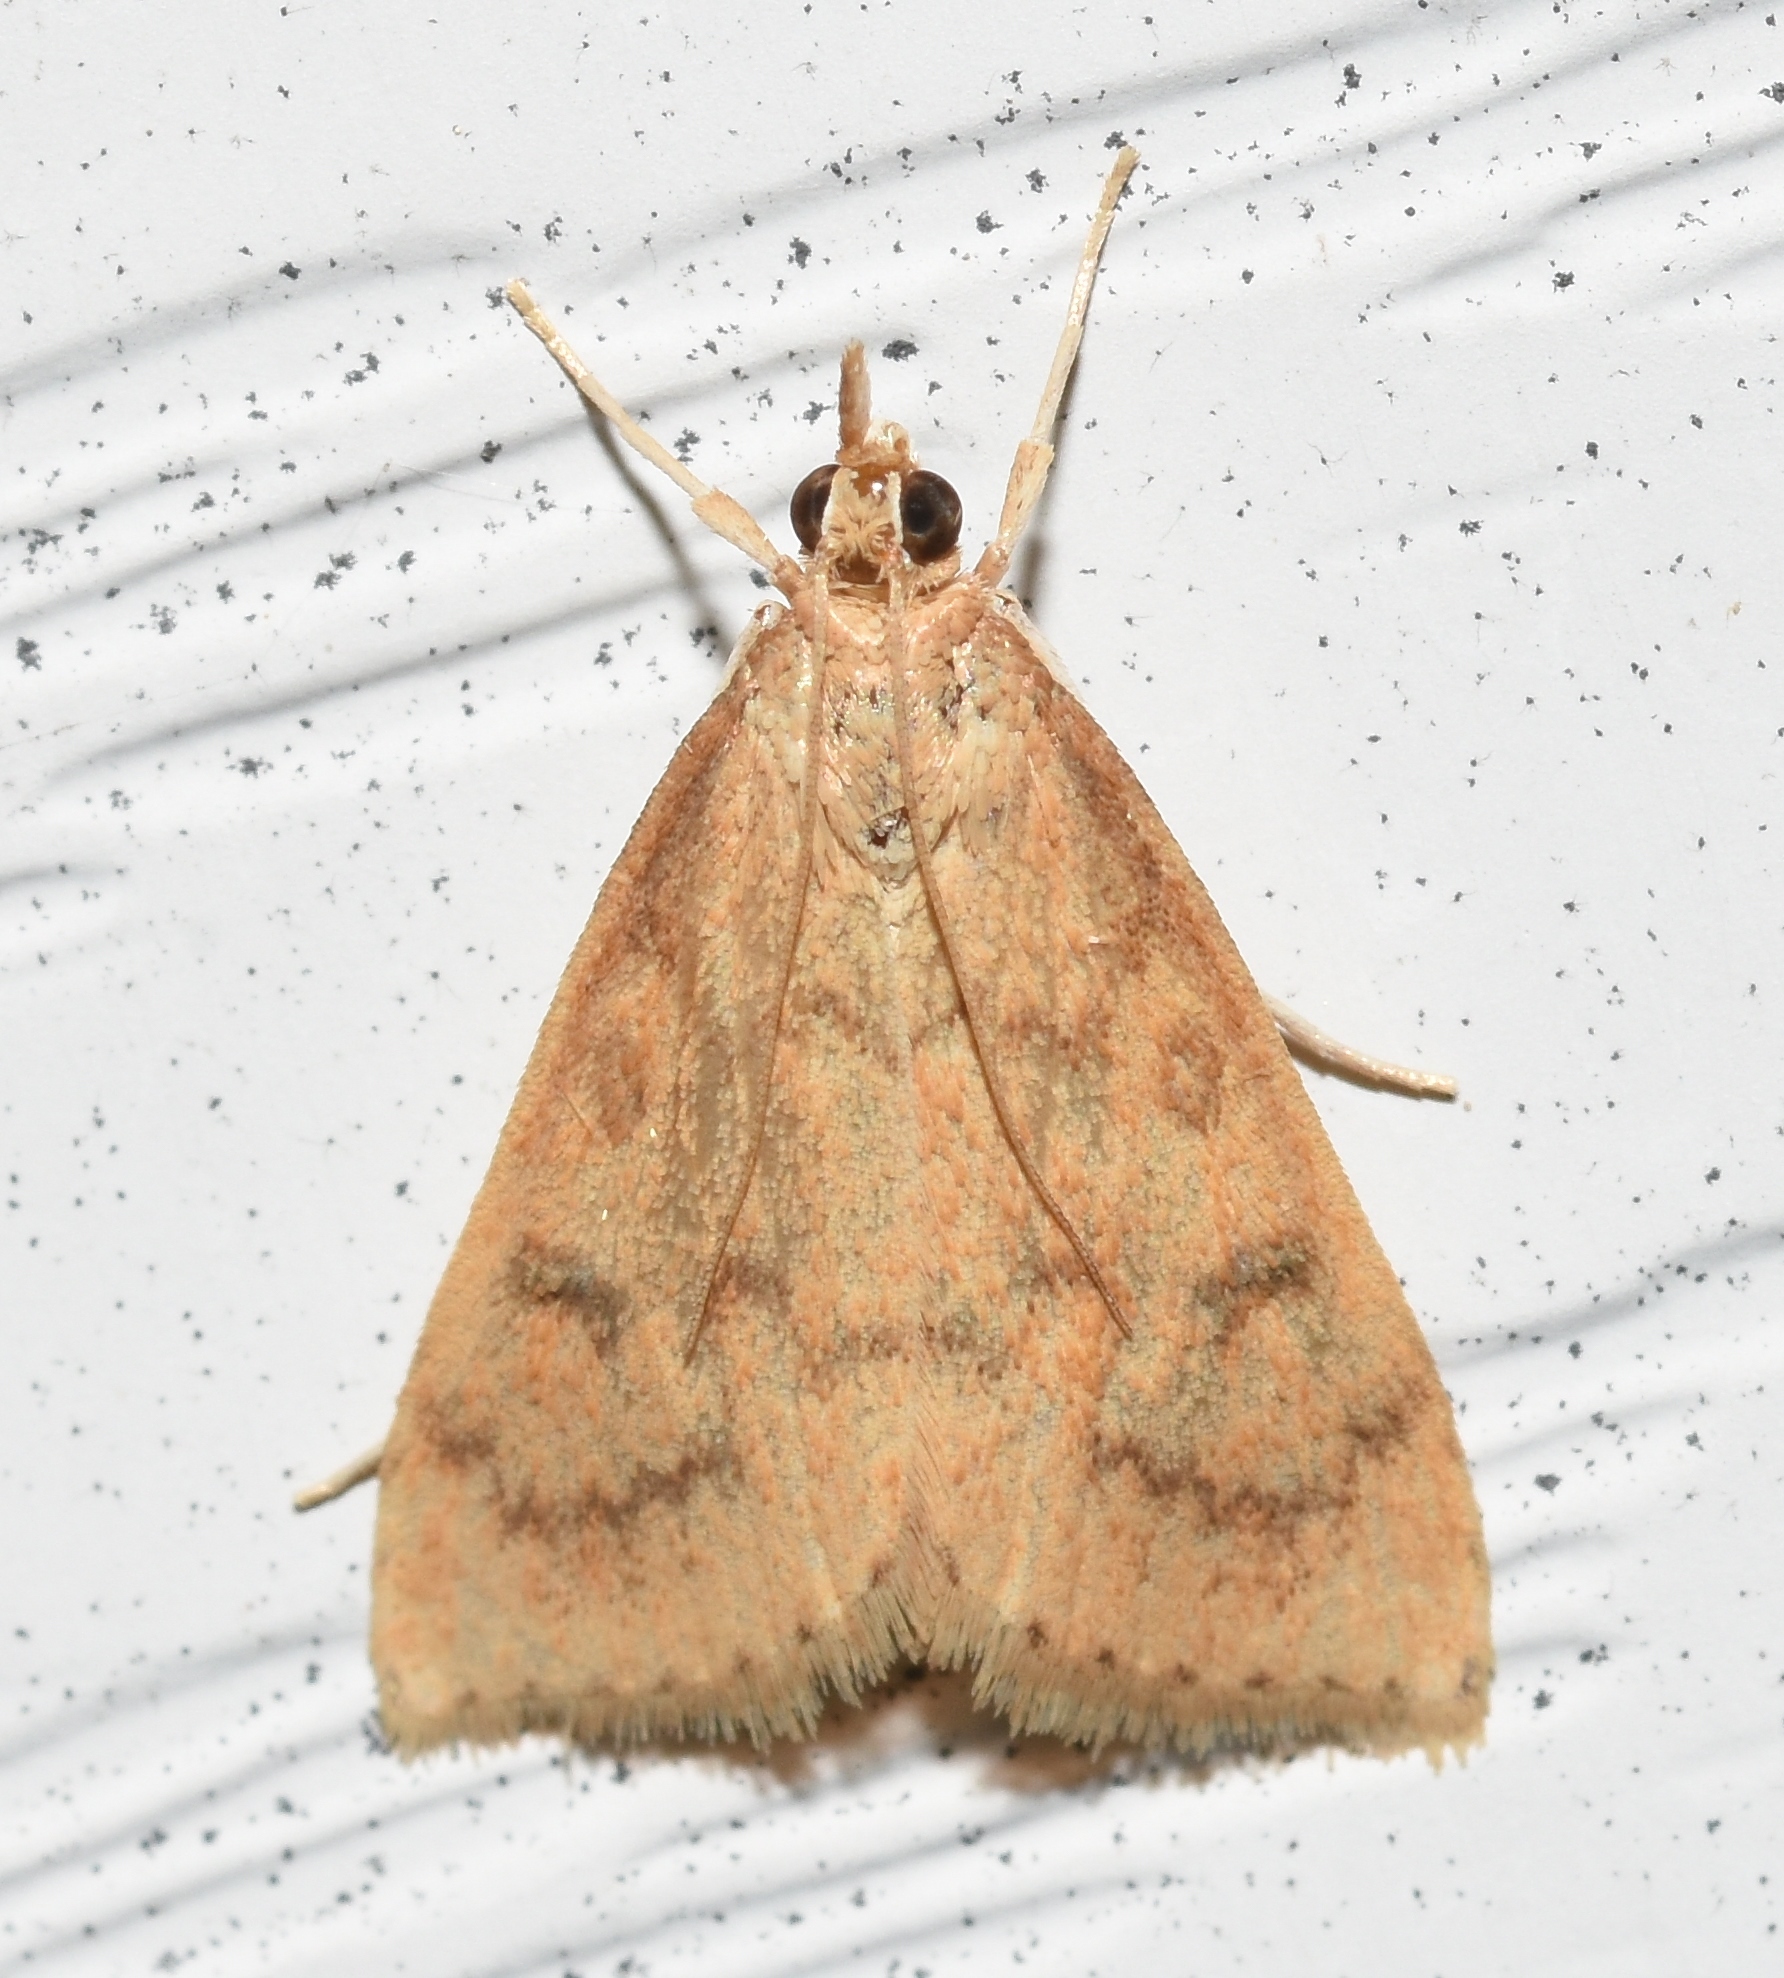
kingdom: Animalia
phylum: Arthropoda
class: Insecta
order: Lepidoptera
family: Crambidae
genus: Udea
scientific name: Udea rubigalis
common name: Celery leaftier moth
